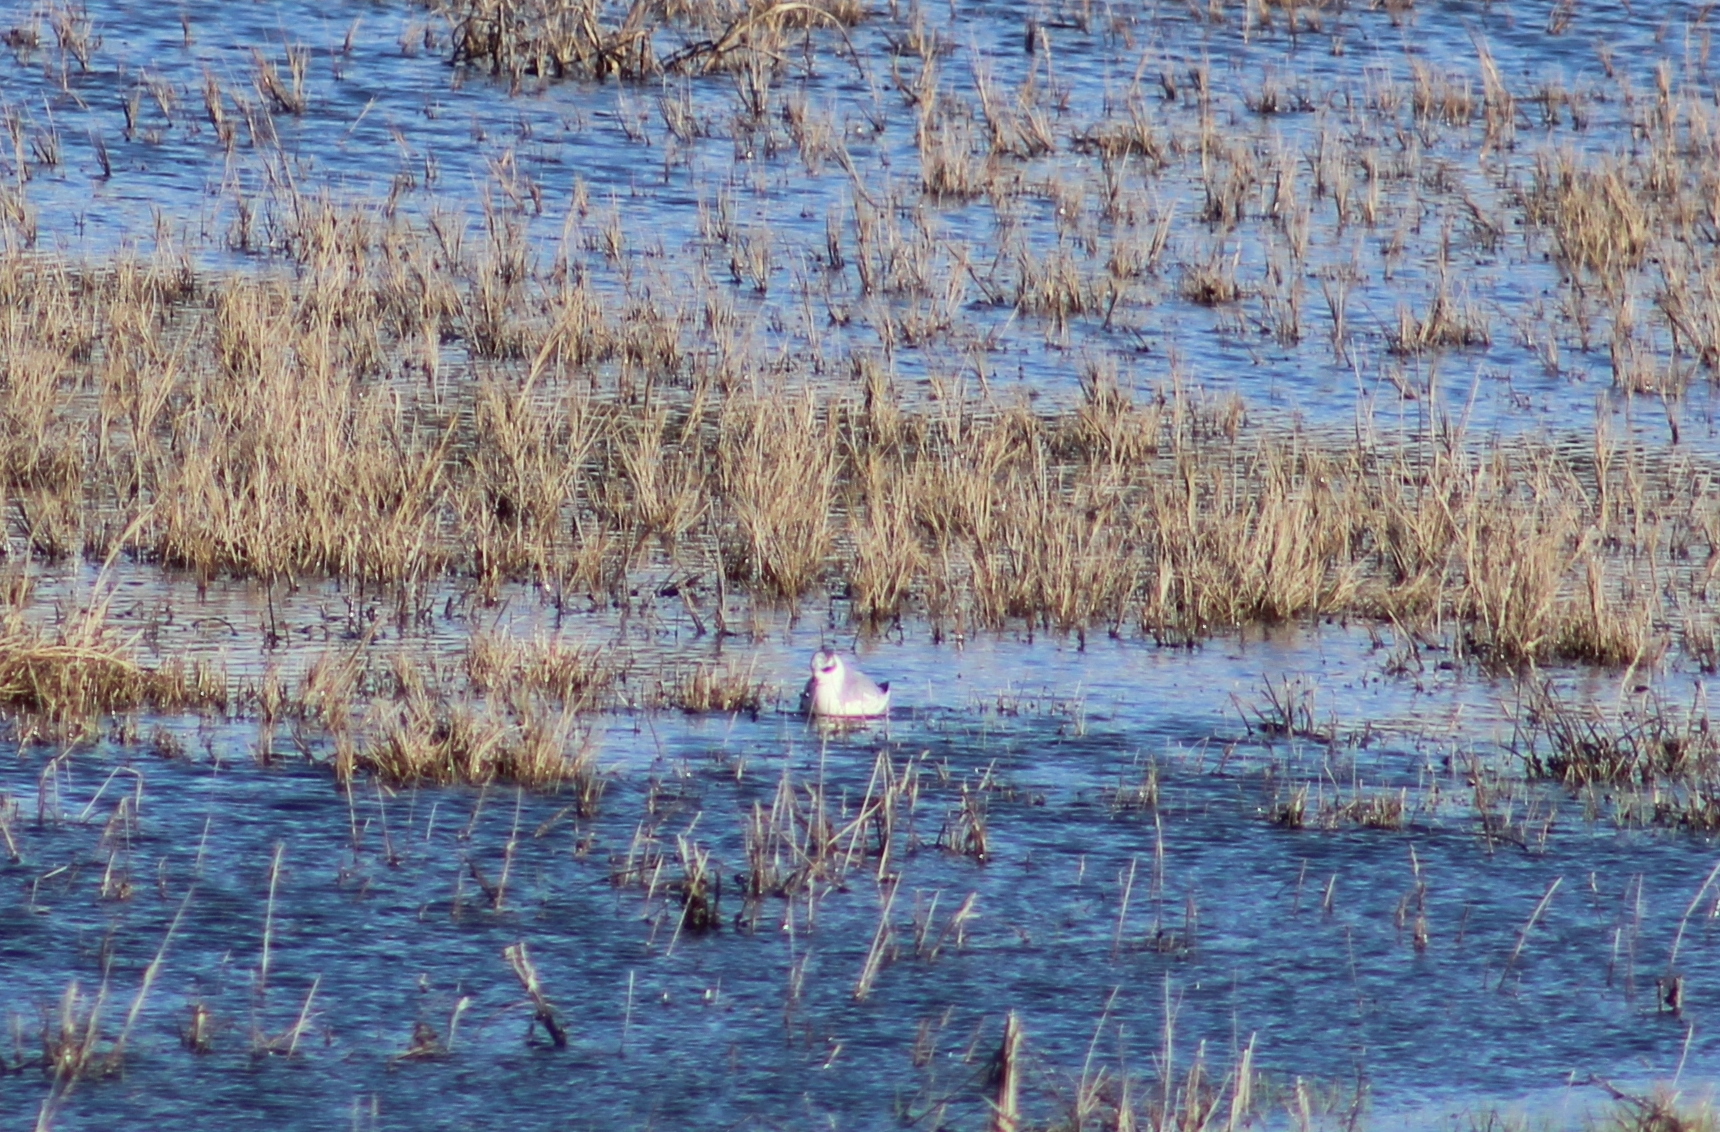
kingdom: Animalia
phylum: Chordata
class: Aves
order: Charadriiformes
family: Scolopacidae
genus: Phalaropus
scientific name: Phalaropus fulicarius
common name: Red phalarope
